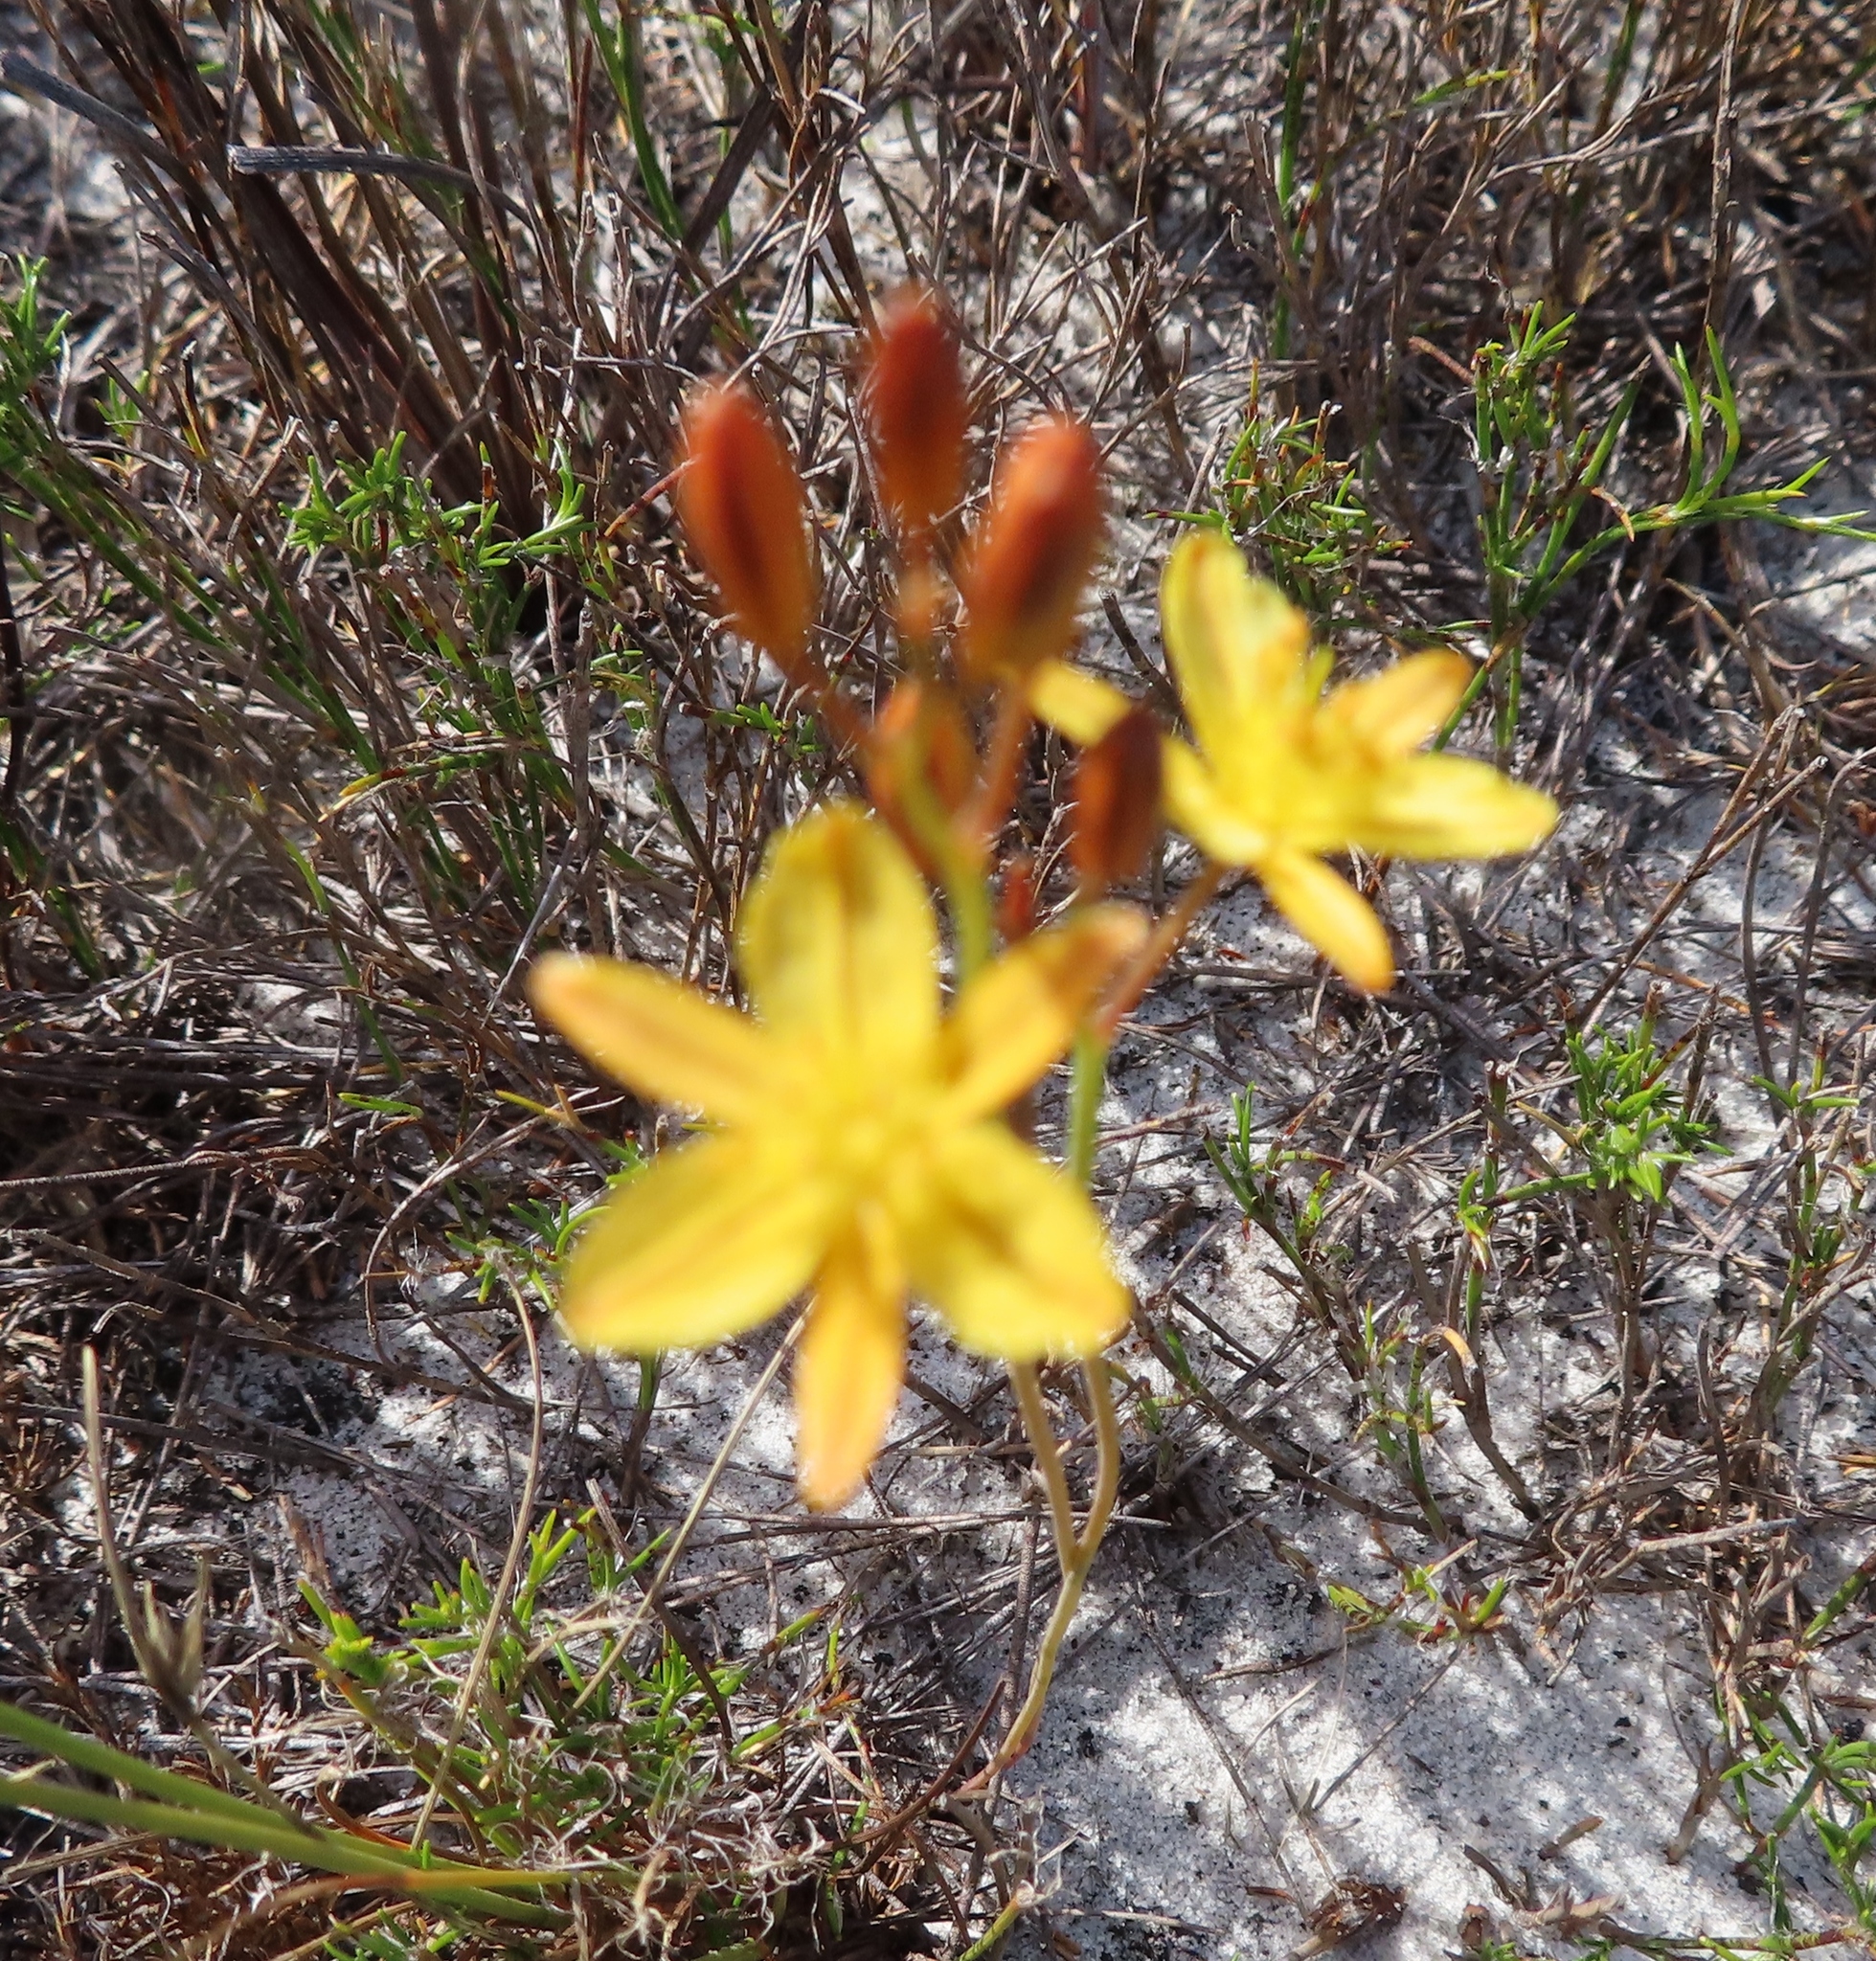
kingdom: Plantae
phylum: Tracheophyta
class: Liliopsida
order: Asparagales
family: Asphodelaceae
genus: Bulbine
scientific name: Bulbine favosa
